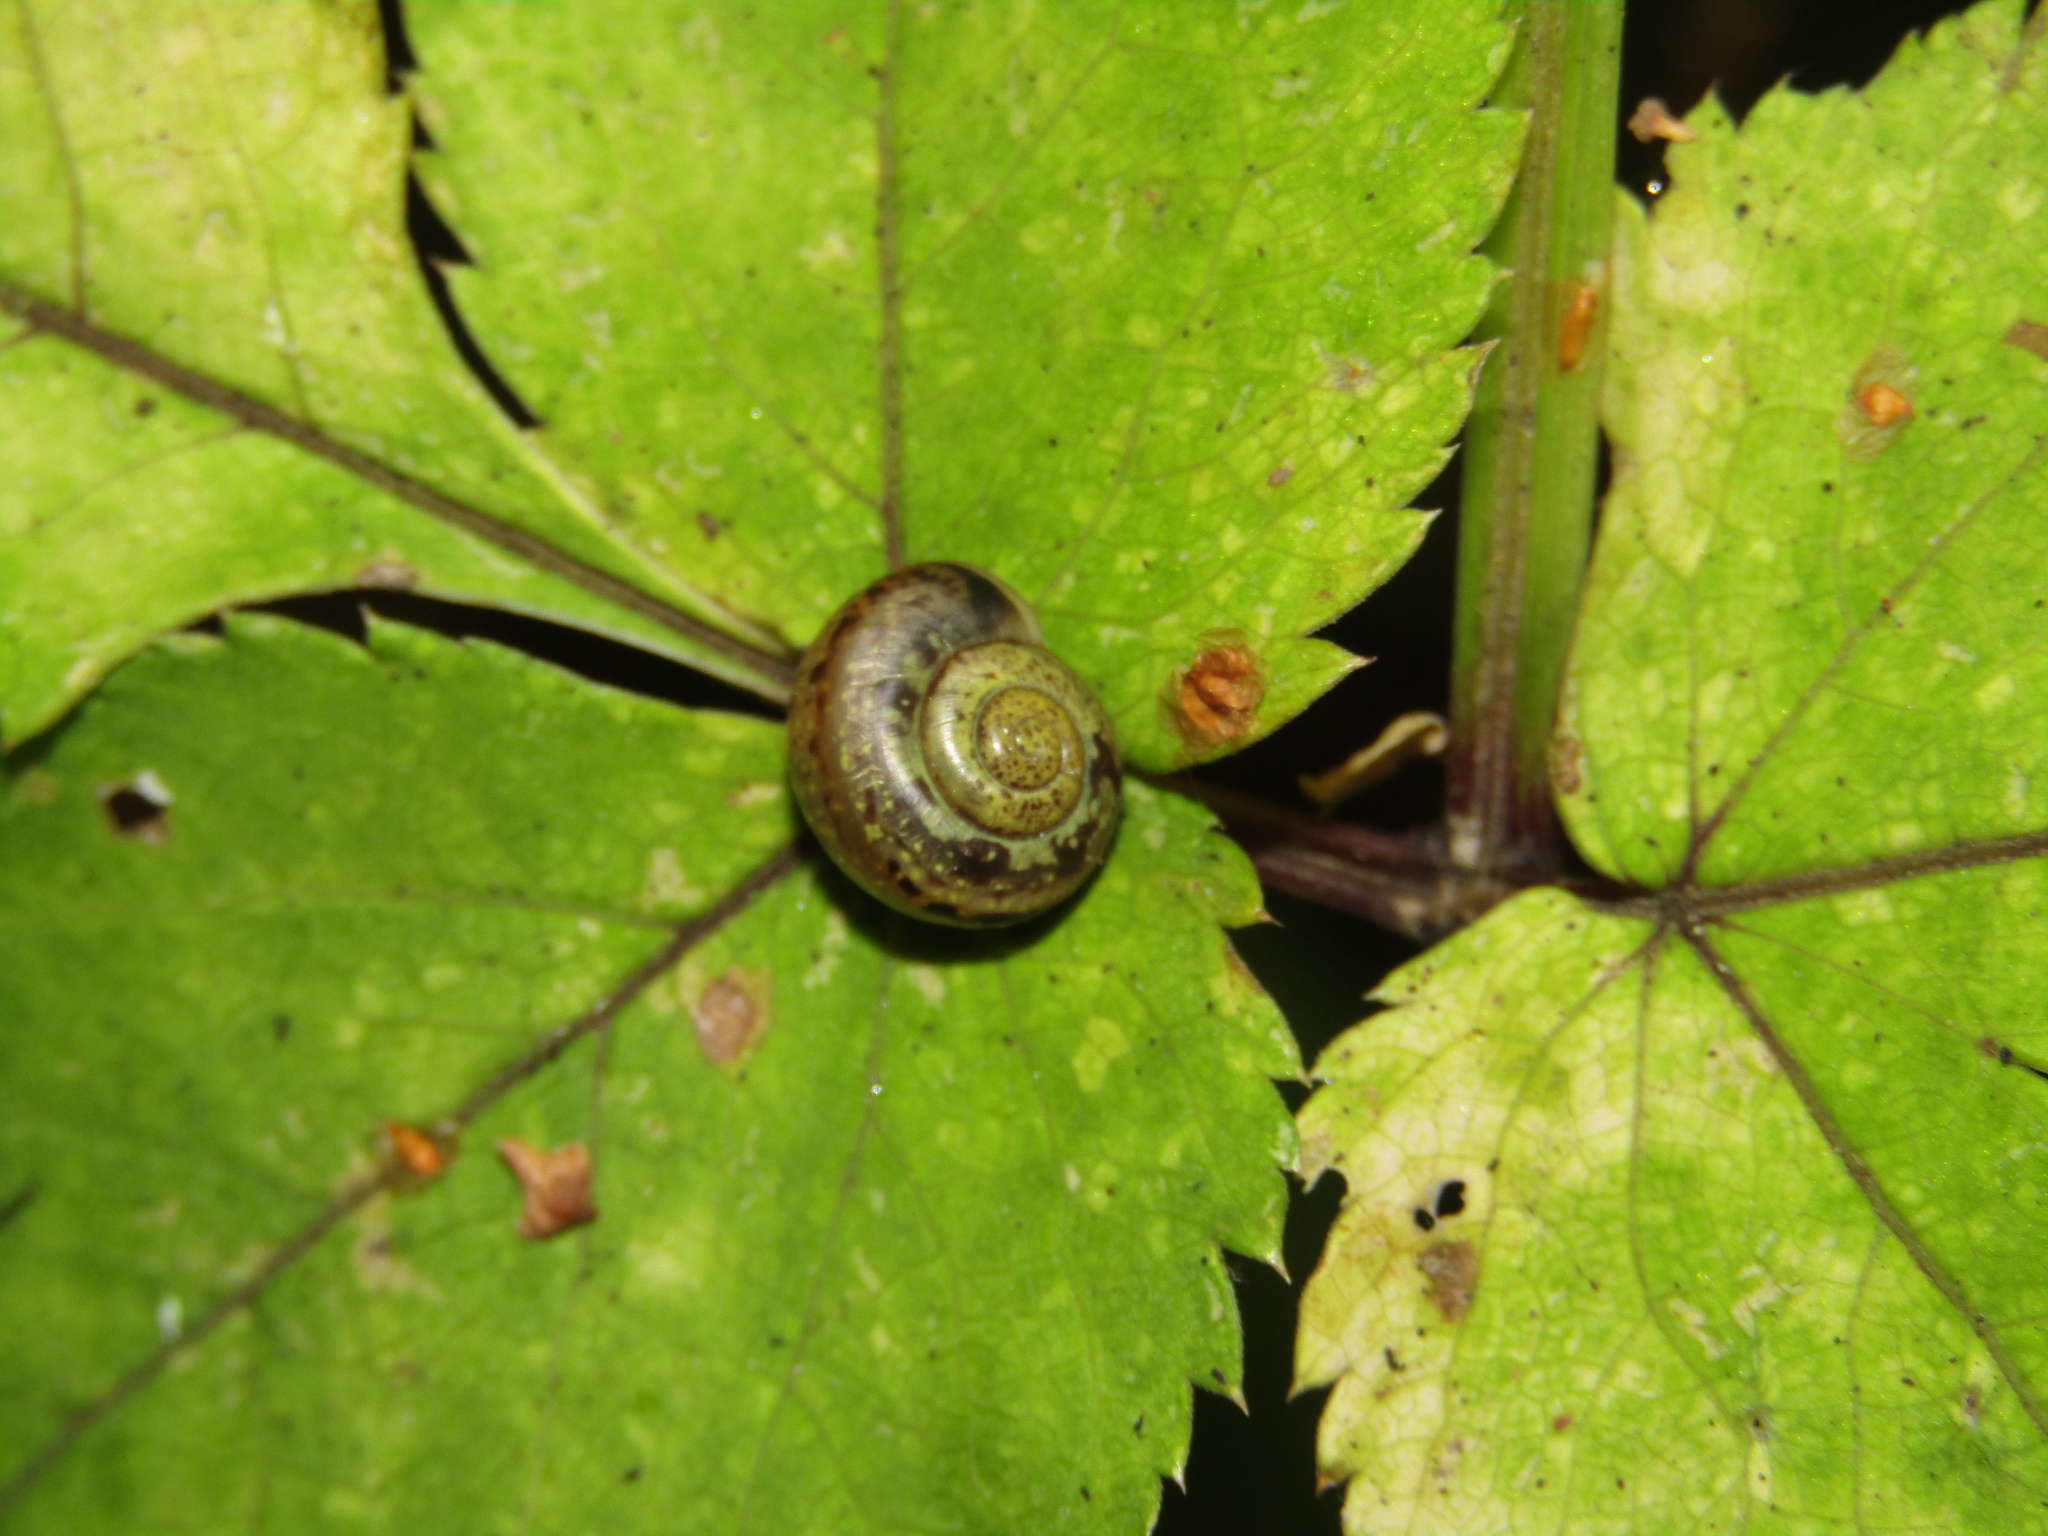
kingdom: Animalia
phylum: Mollusca
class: Gastropoda
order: Stylommatophora
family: Camaenidae
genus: Fruticicola
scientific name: Fruticicola fruticum
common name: Bush snail
